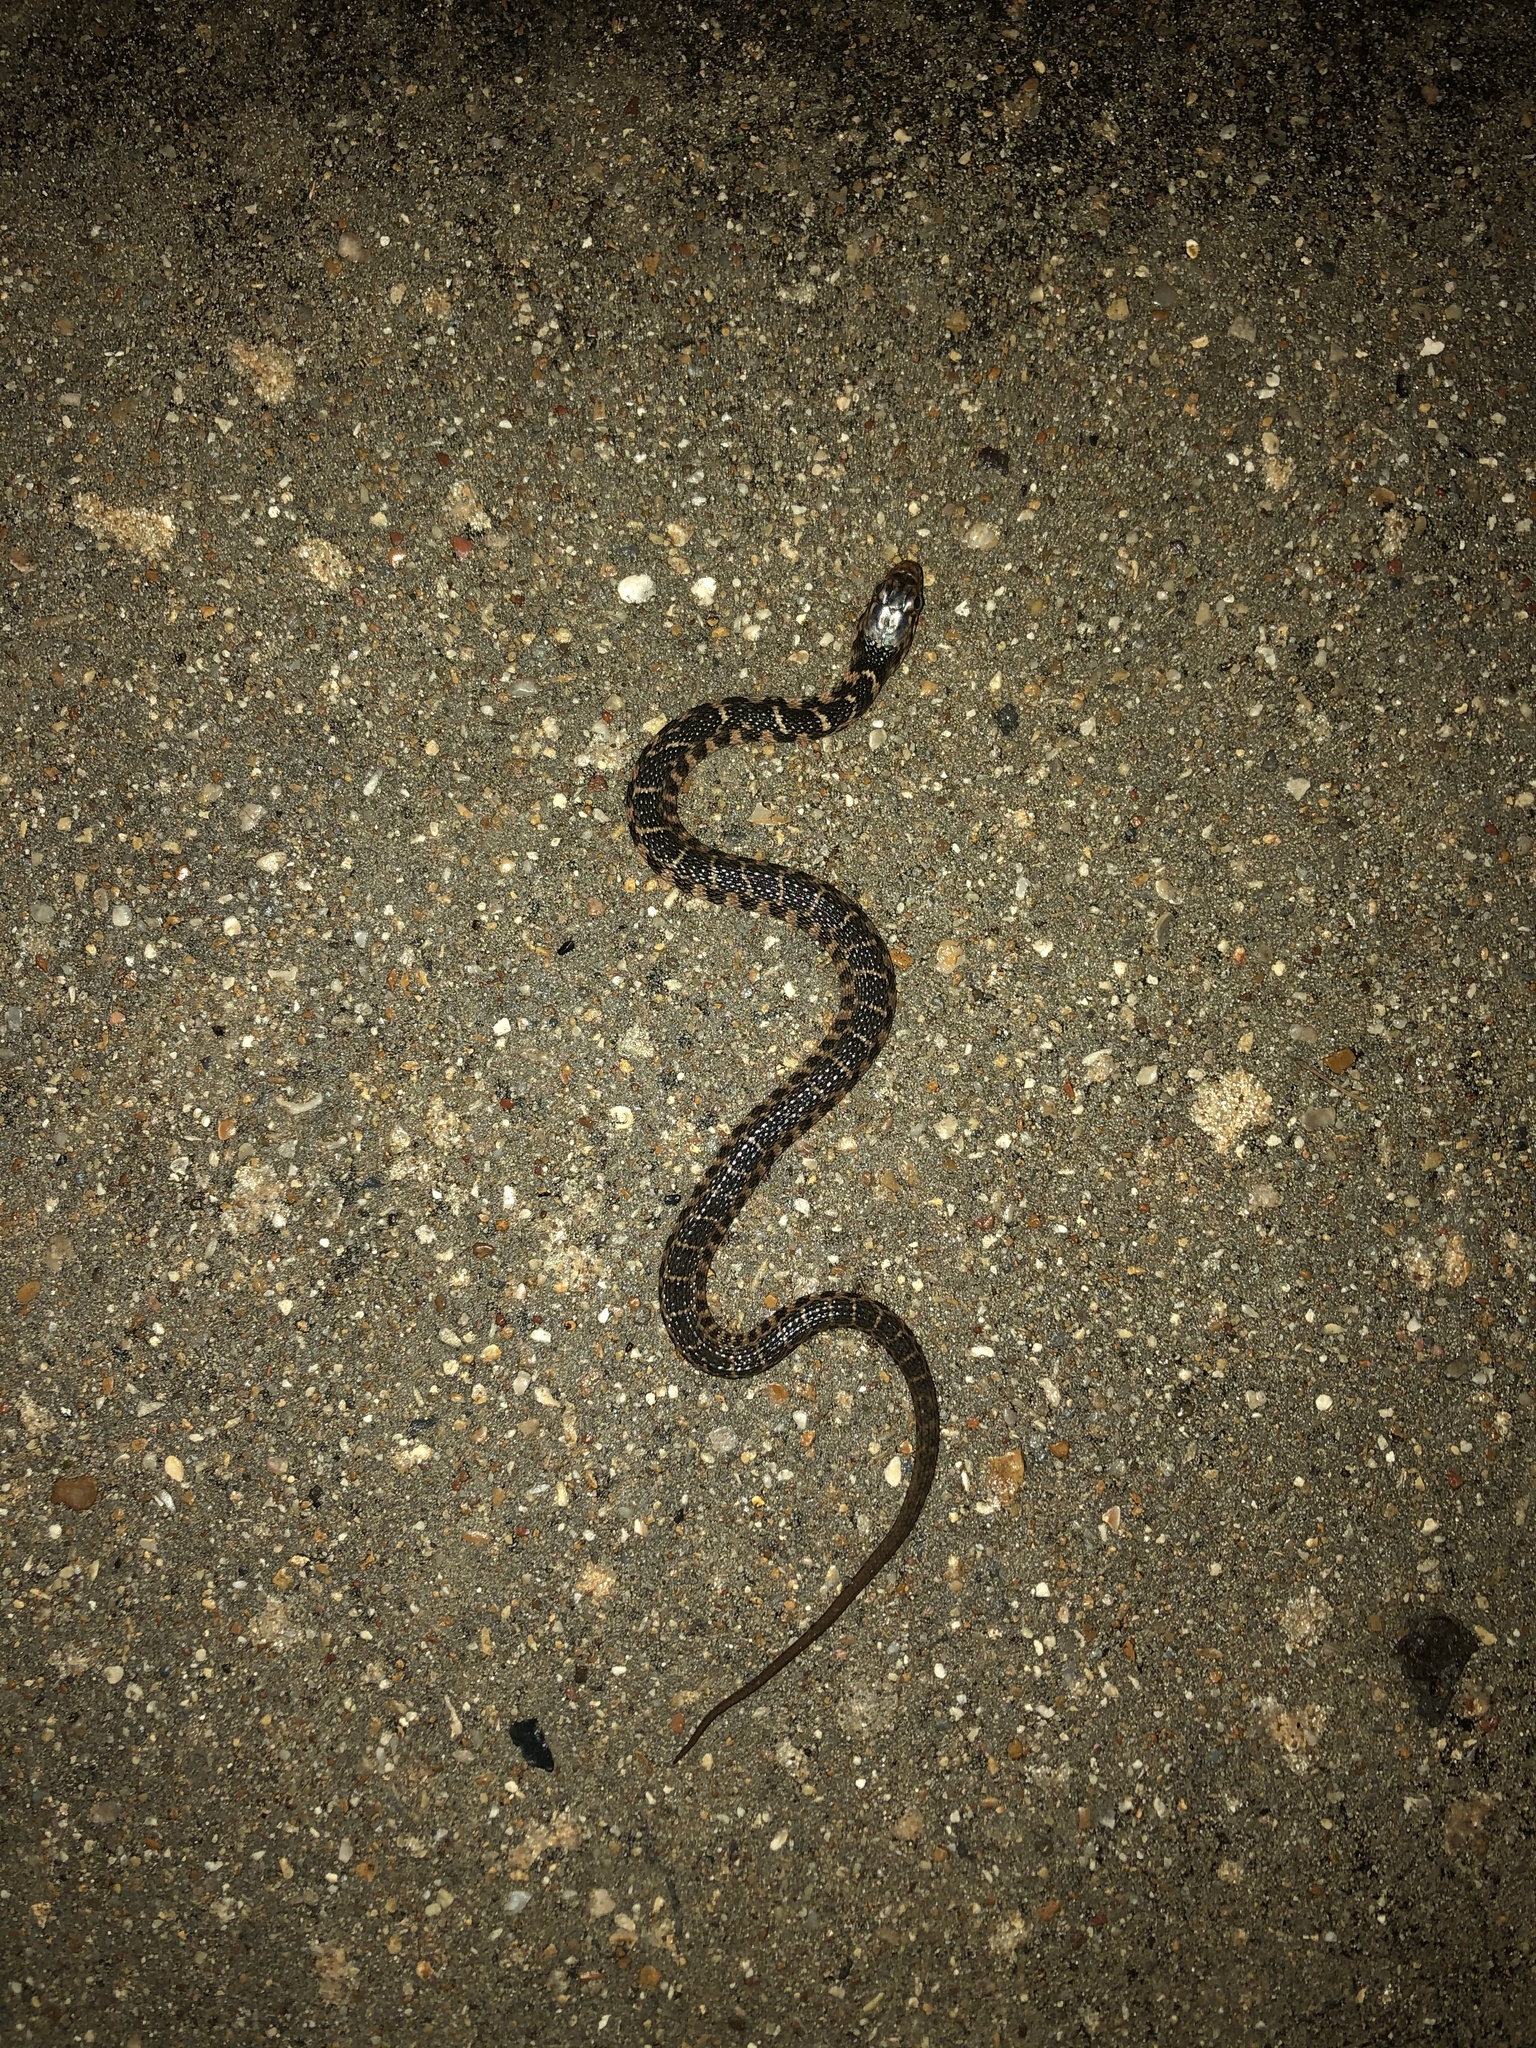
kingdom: Animalia
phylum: Chordata
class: Squamata
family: Colubridae
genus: Nerodia
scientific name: Nerodia erythrogaster
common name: Plainbelly water snake
